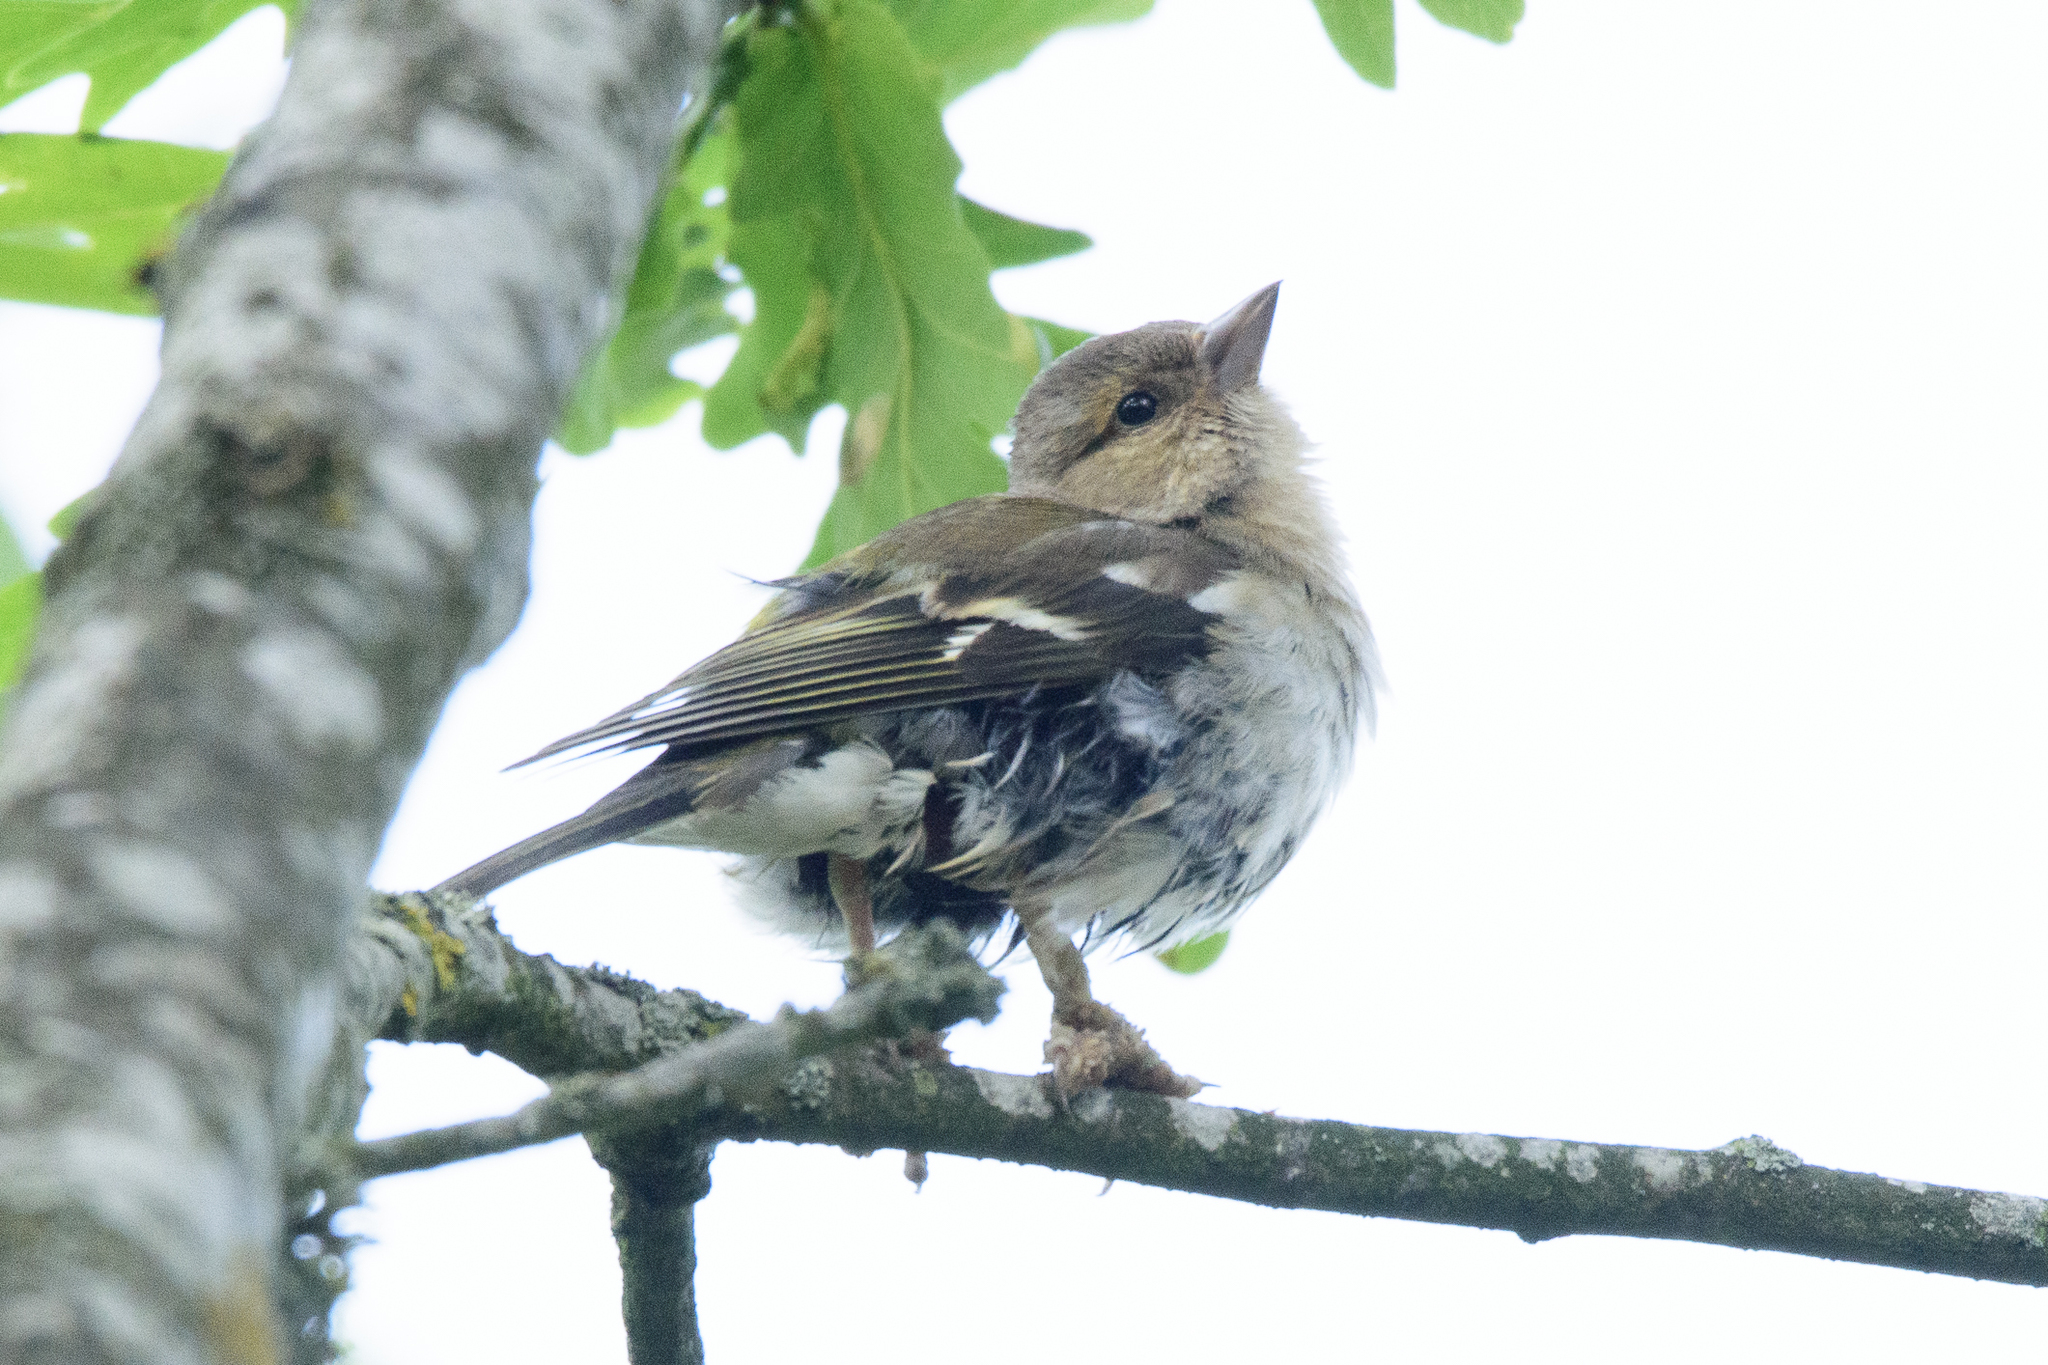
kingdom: Animalia
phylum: Chordata
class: Aves
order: Passeriformes
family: Fringillidae
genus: Fringilla
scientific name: Fringilla coelebs
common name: Common chaffinch
